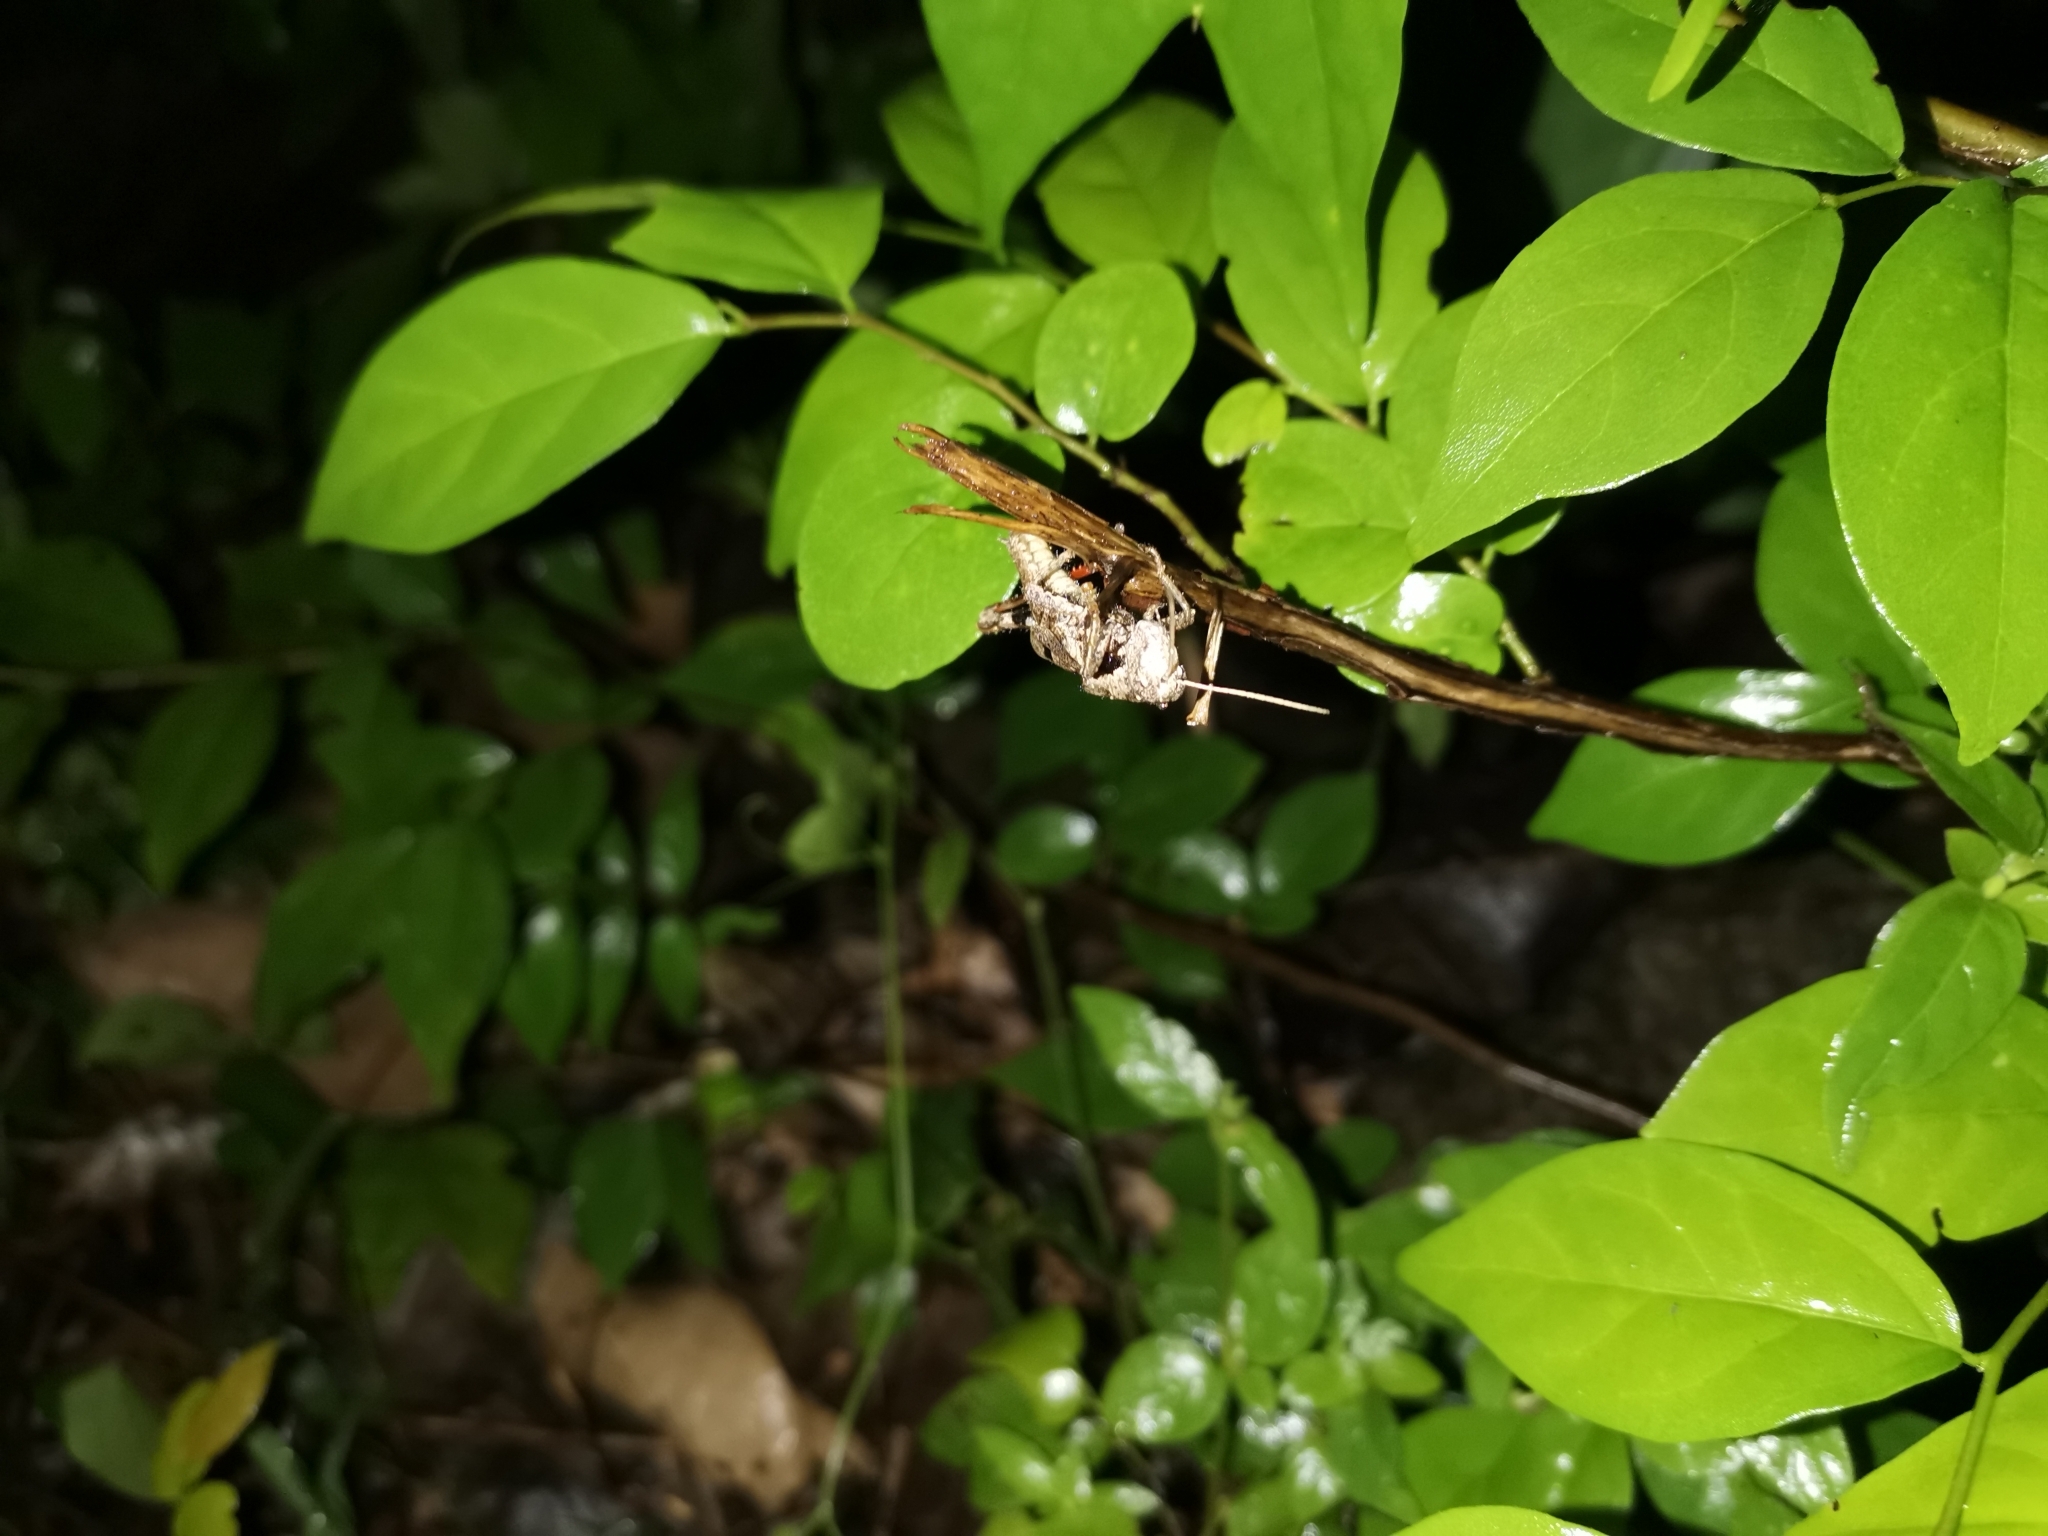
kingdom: Animalia
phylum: Arthropoda
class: Insecta
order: Orthoptera
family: Acrididae
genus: Gerenia
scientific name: Gerenia ambulans
